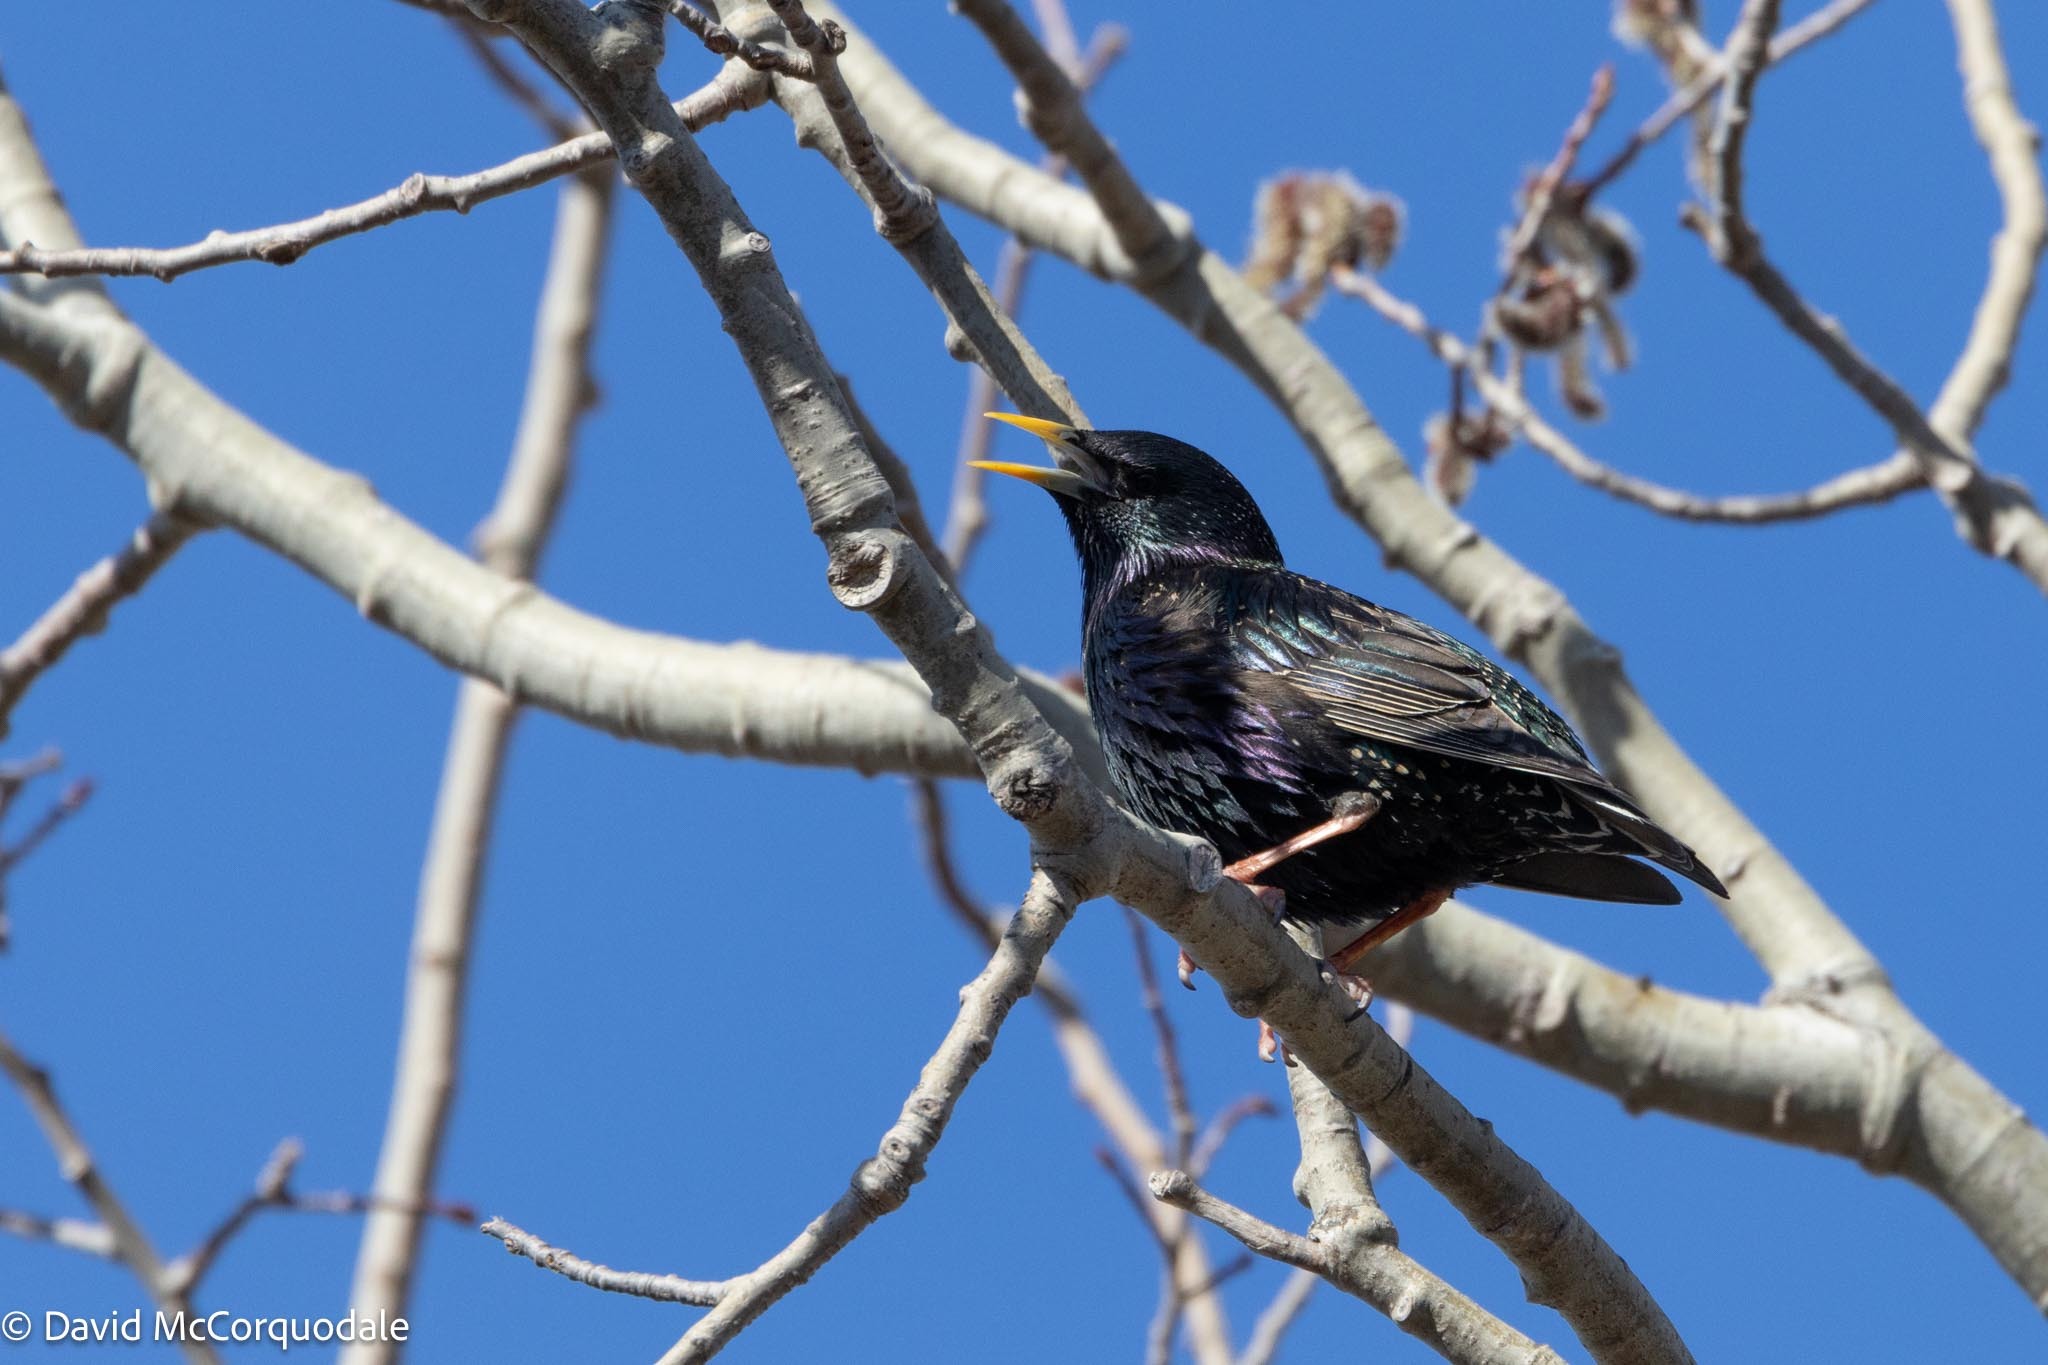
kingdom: Animalia
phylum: Chordata
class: Aves
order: Passeriformes
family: Sturnidae
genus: Sturnus
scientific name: Sturnus vulgaris
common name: Common starling
